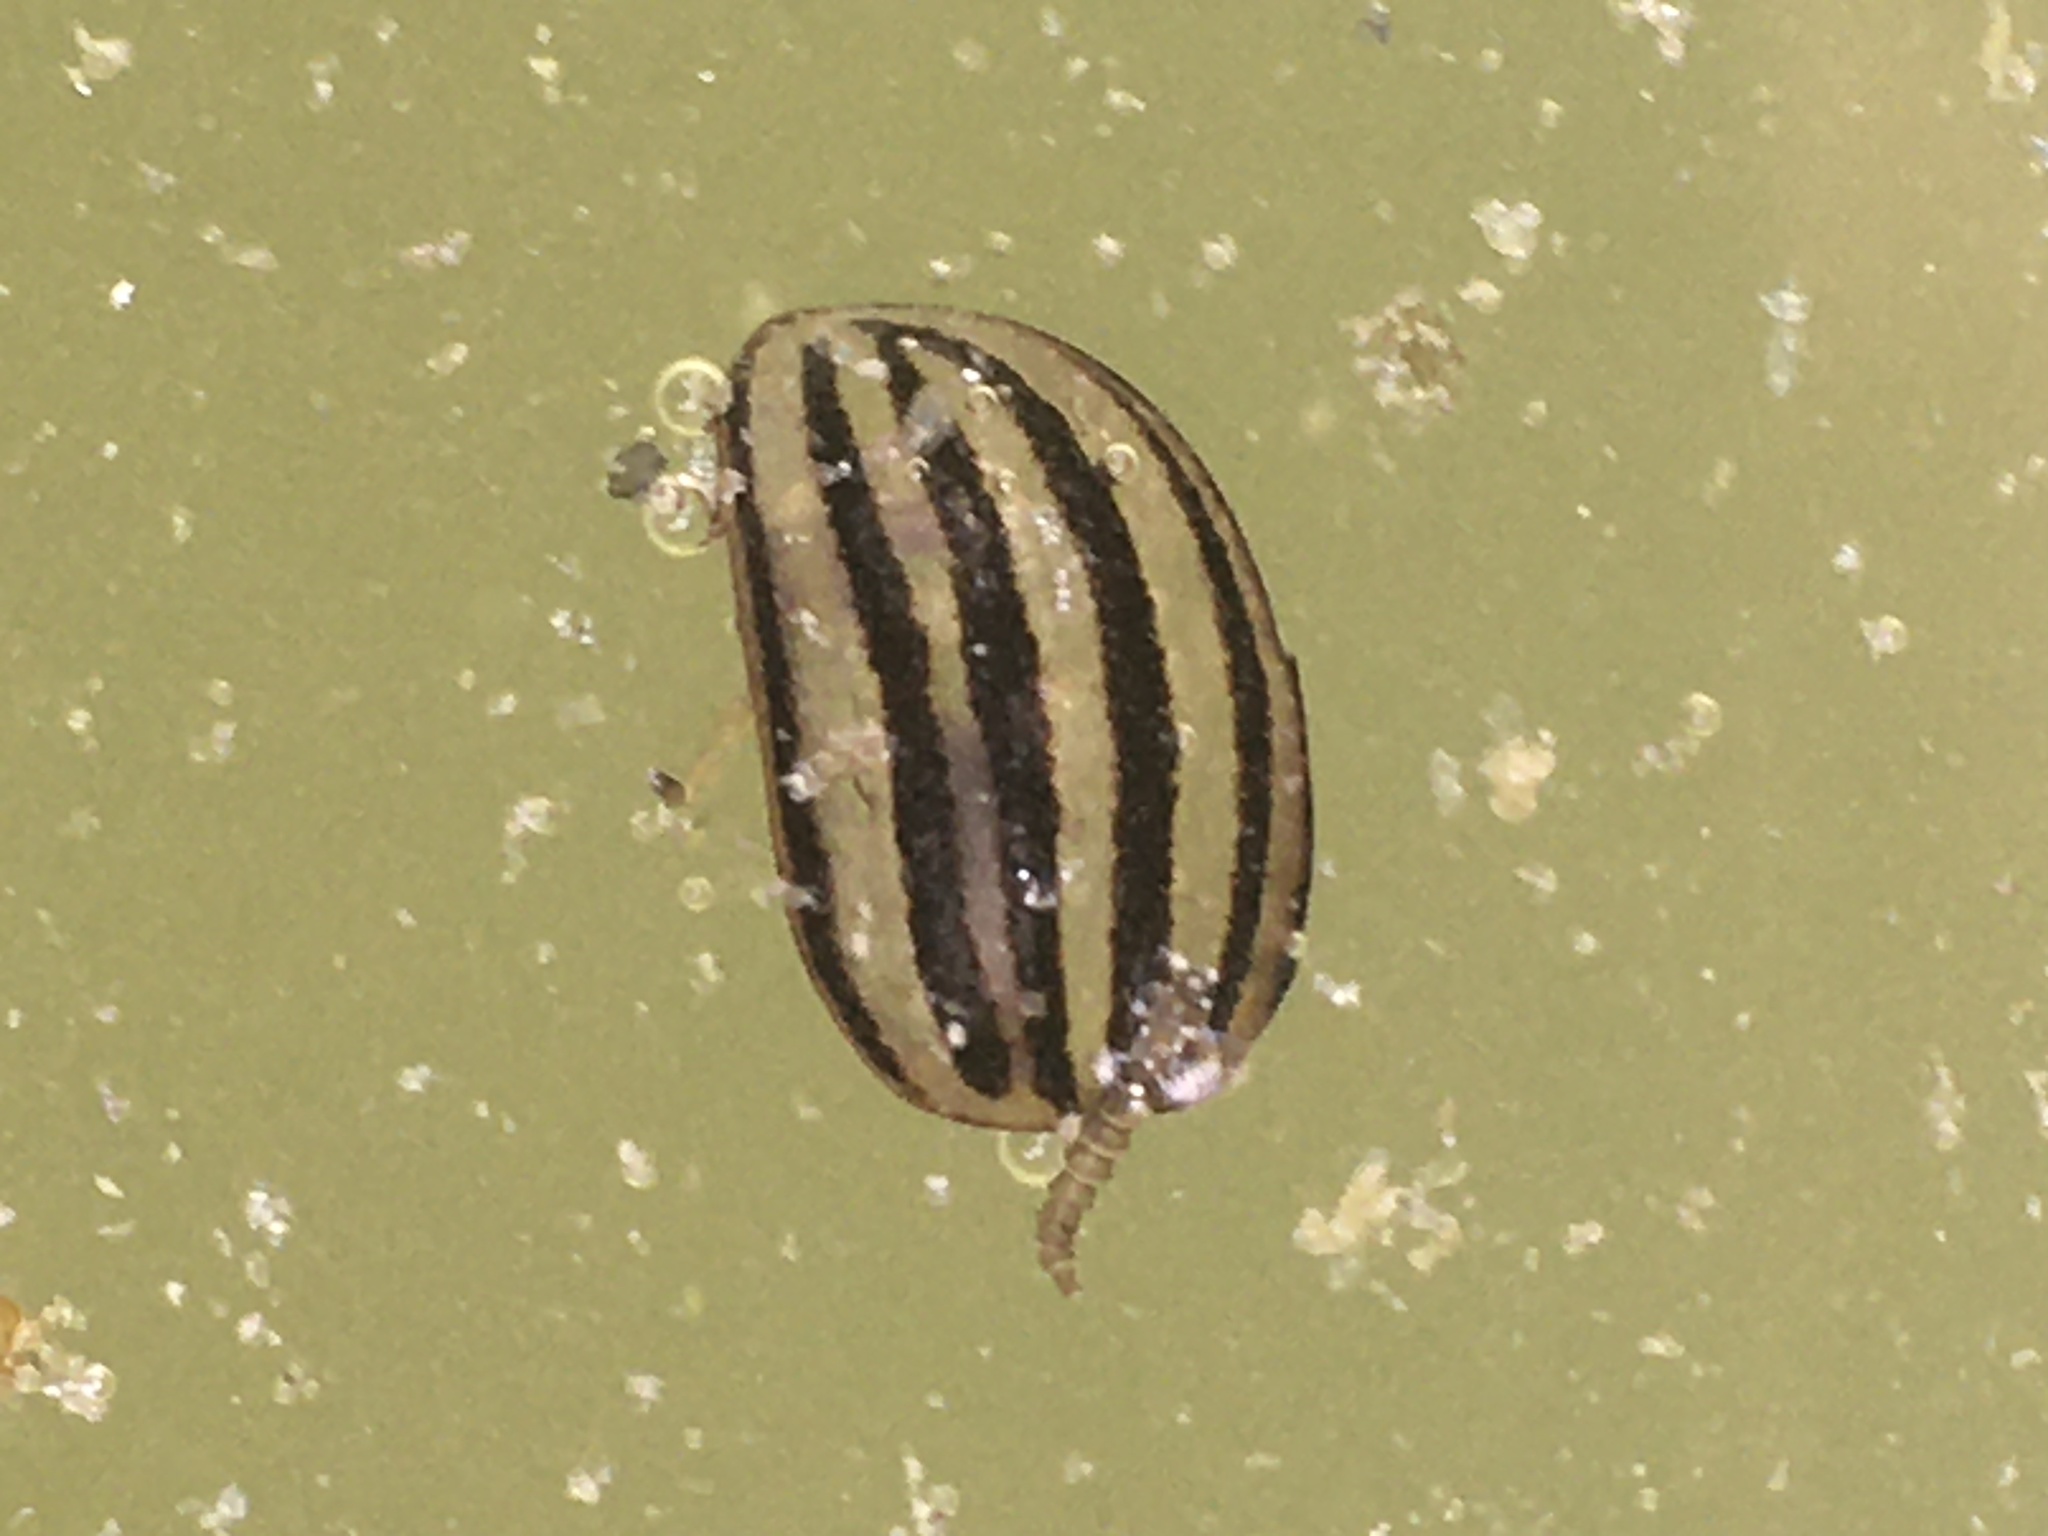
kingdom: Animalia
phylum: Arthropoda
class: Insecta
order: Coleoptera
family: Chrysomelidae
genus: Leptinotarsa
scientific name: Leptinotarsa decemlineata
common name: Colorado potato beetle
